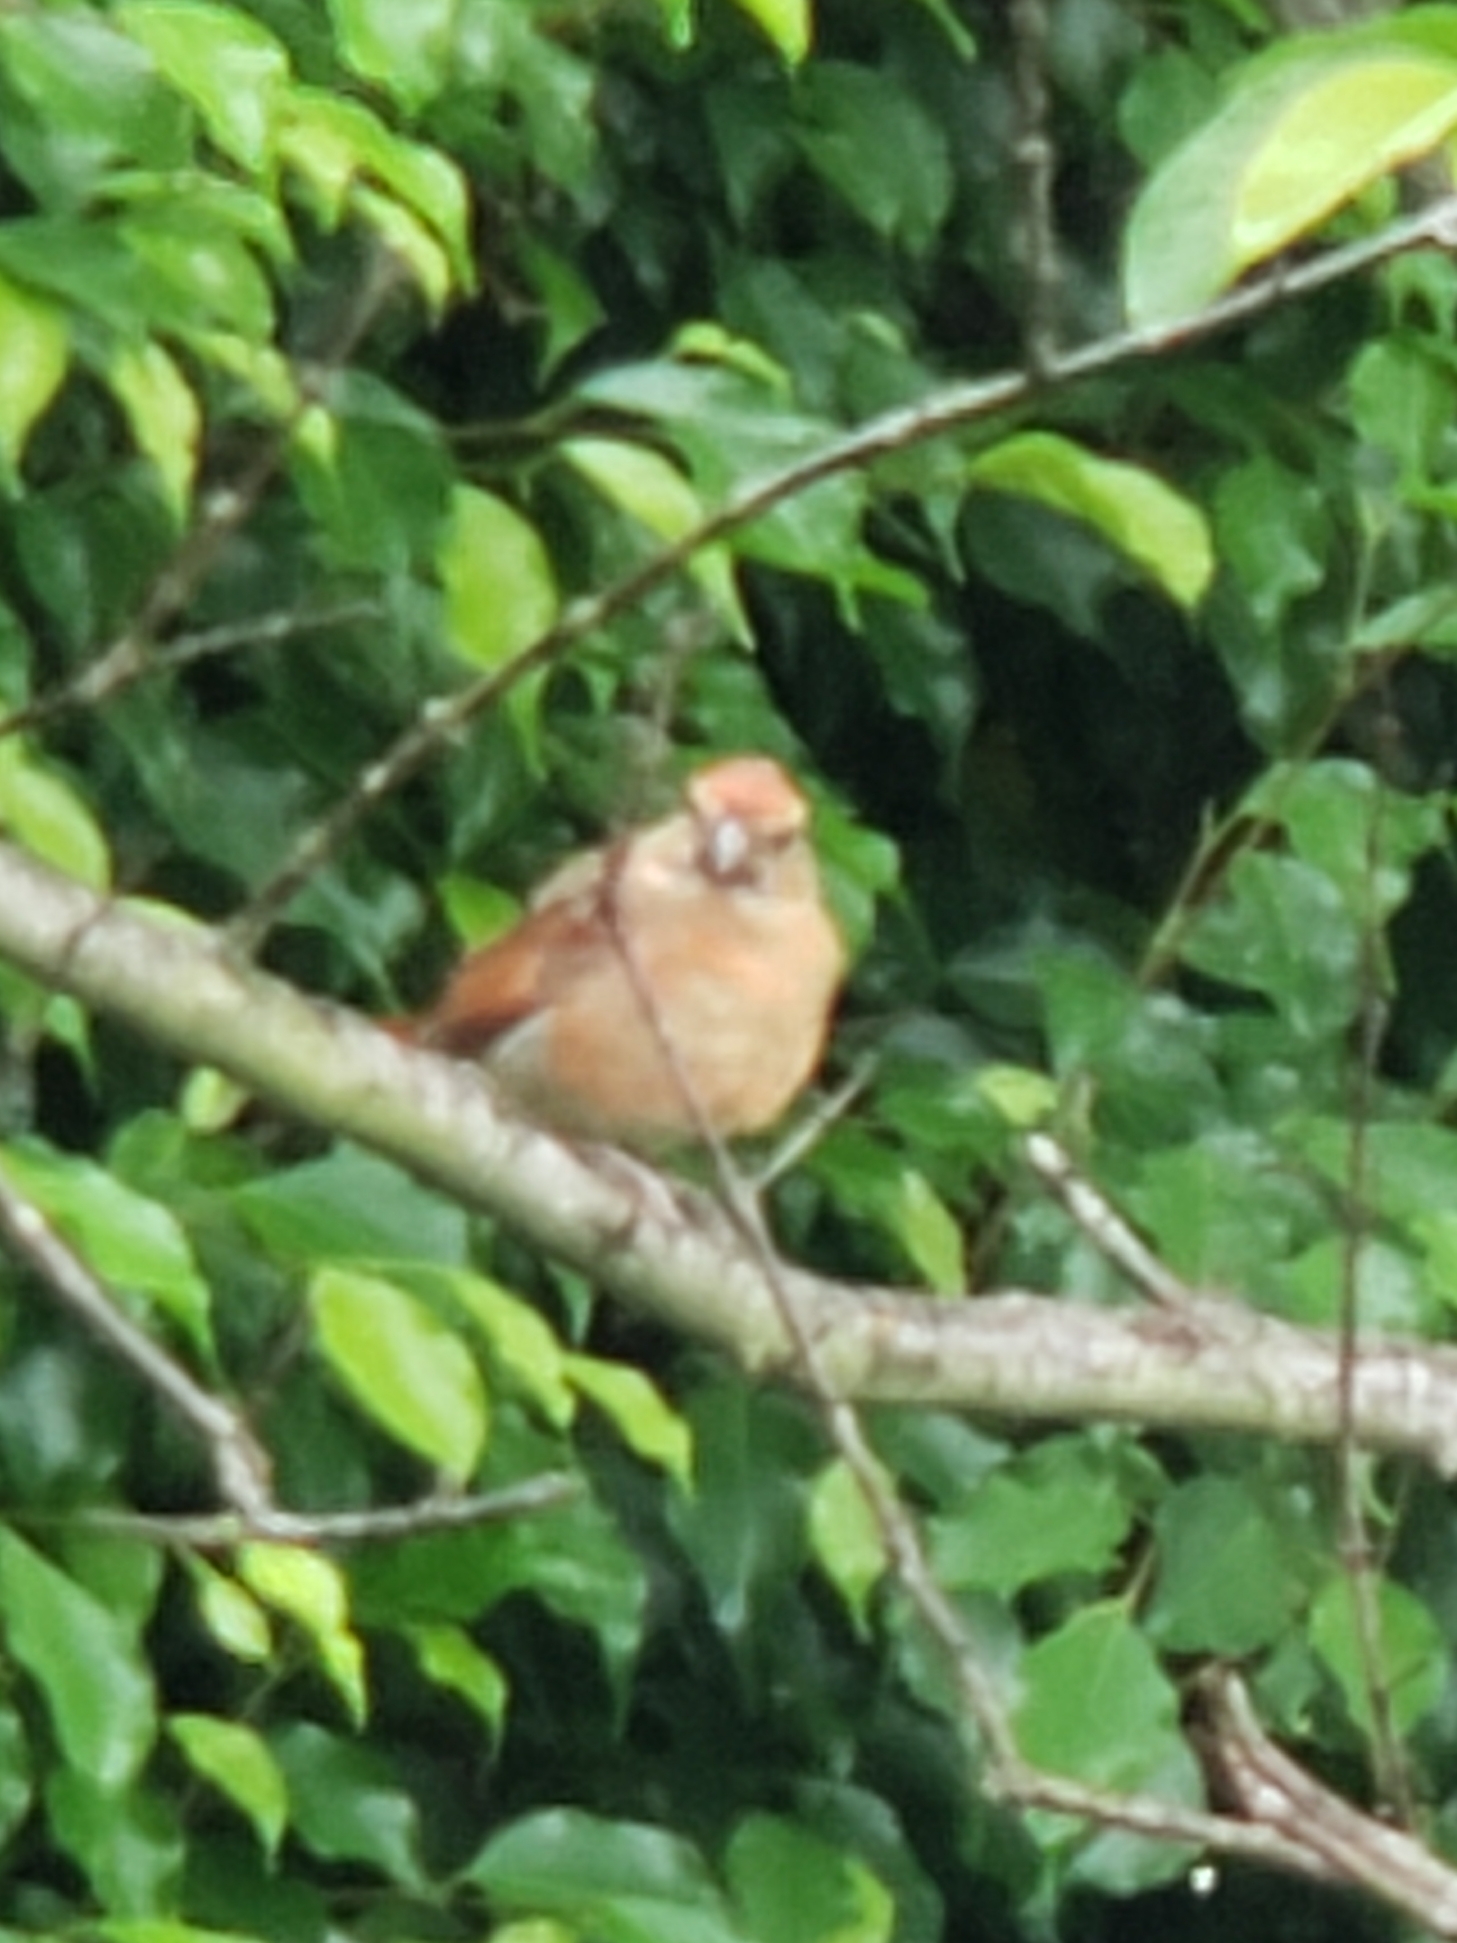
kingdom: Animalia
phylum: Chordata
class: Aves
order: Passeriformes
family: Cardinalidae
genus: Cardinalis
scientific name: Cardinalis cardinalis
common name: Northern cardinal
